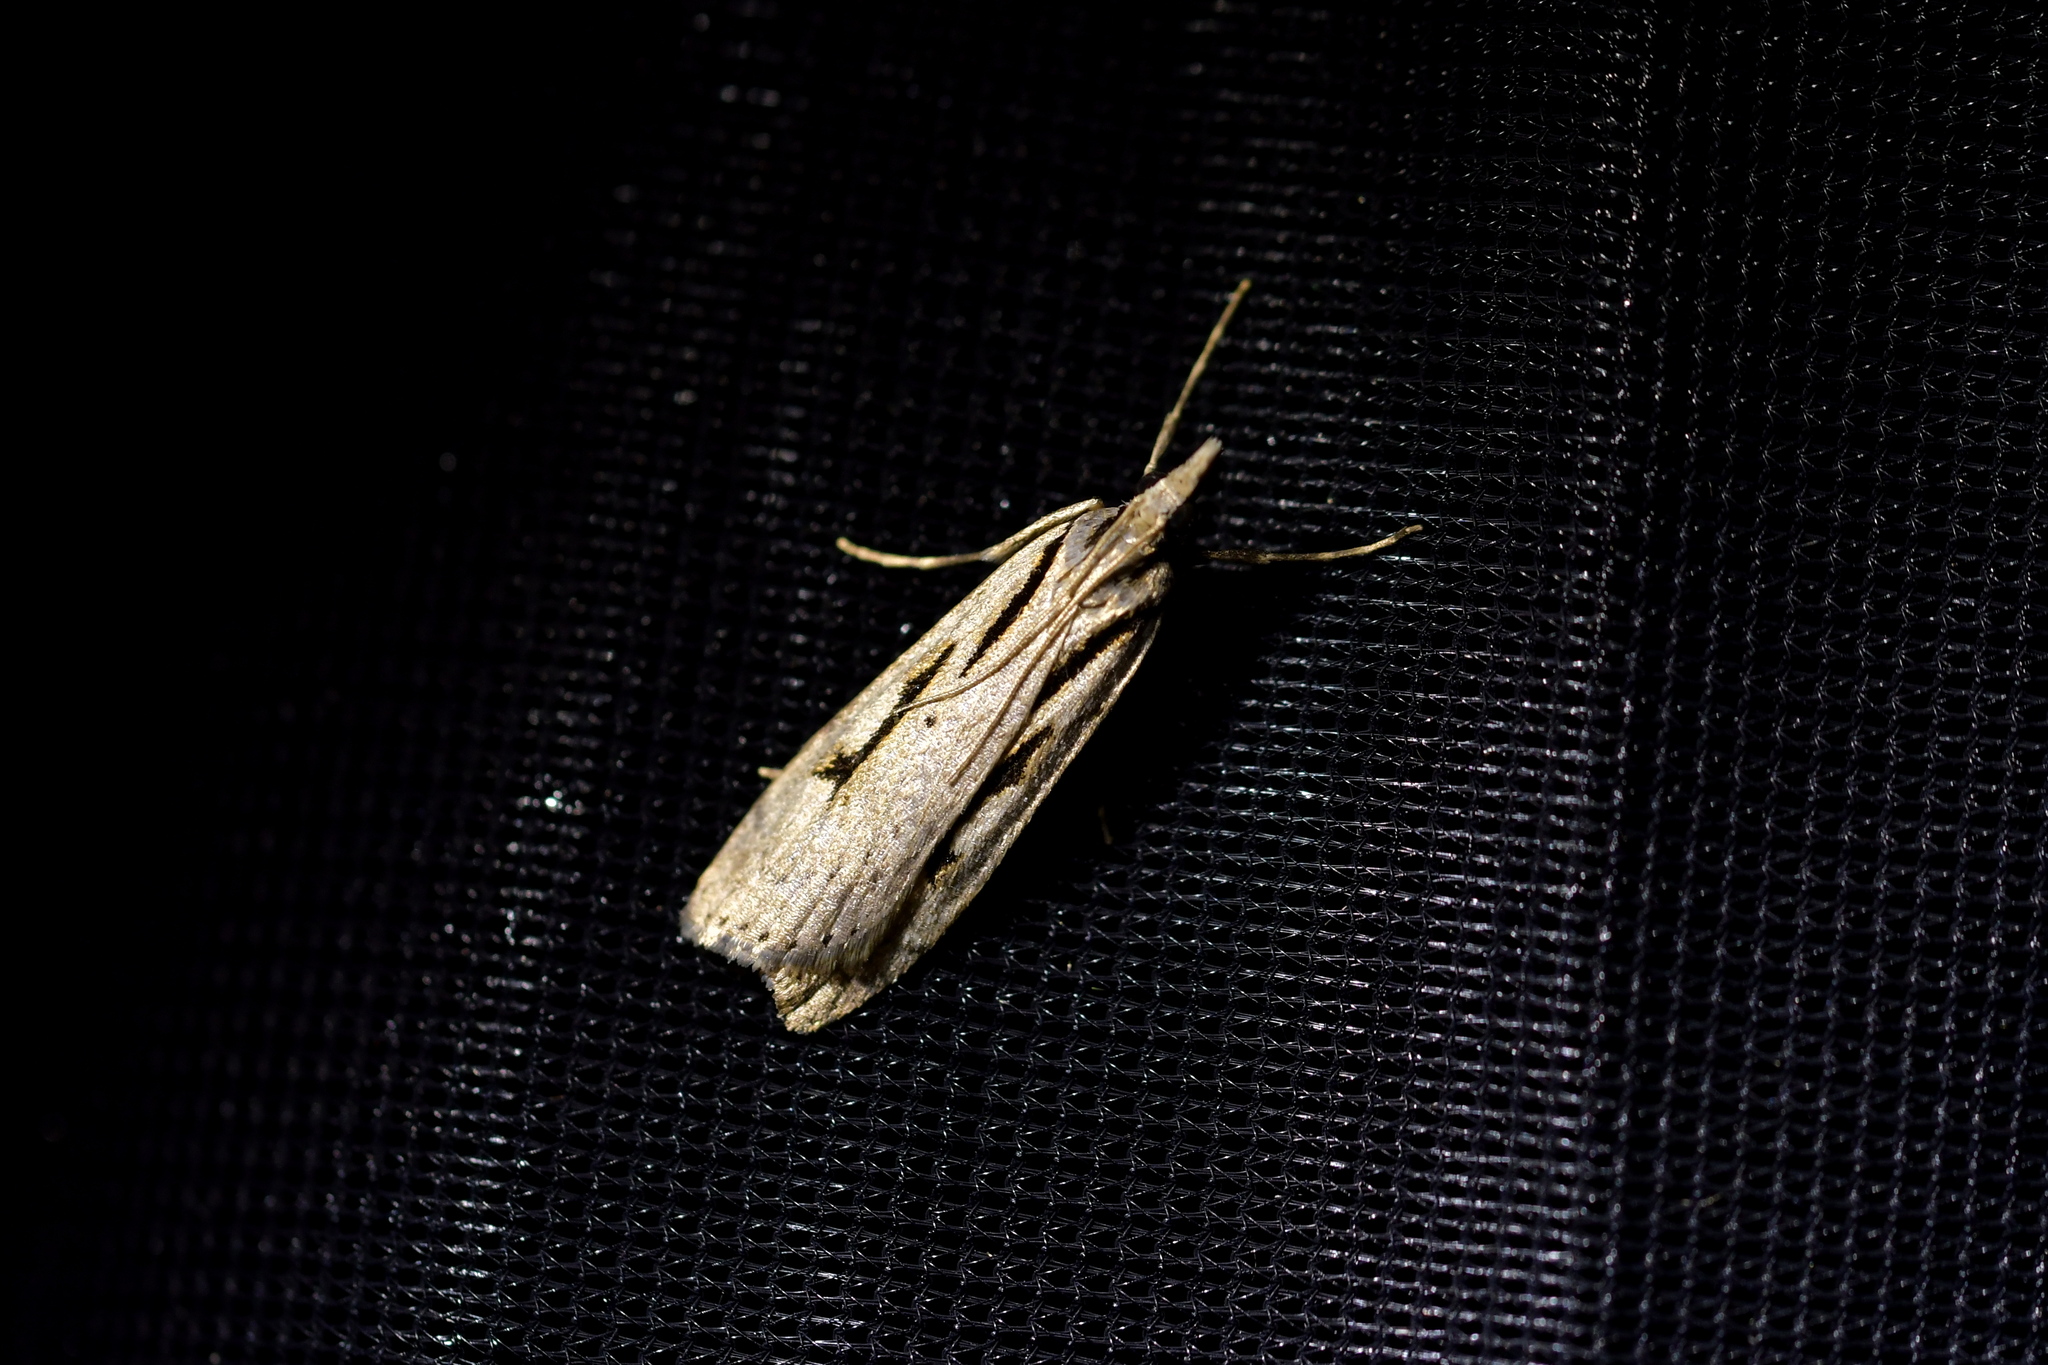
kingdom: Animalia
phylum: Arthropoda
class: Insecta
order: Lepidoptera
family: Crambidae
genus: Scoparia
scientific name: Scoparia rotuellus
